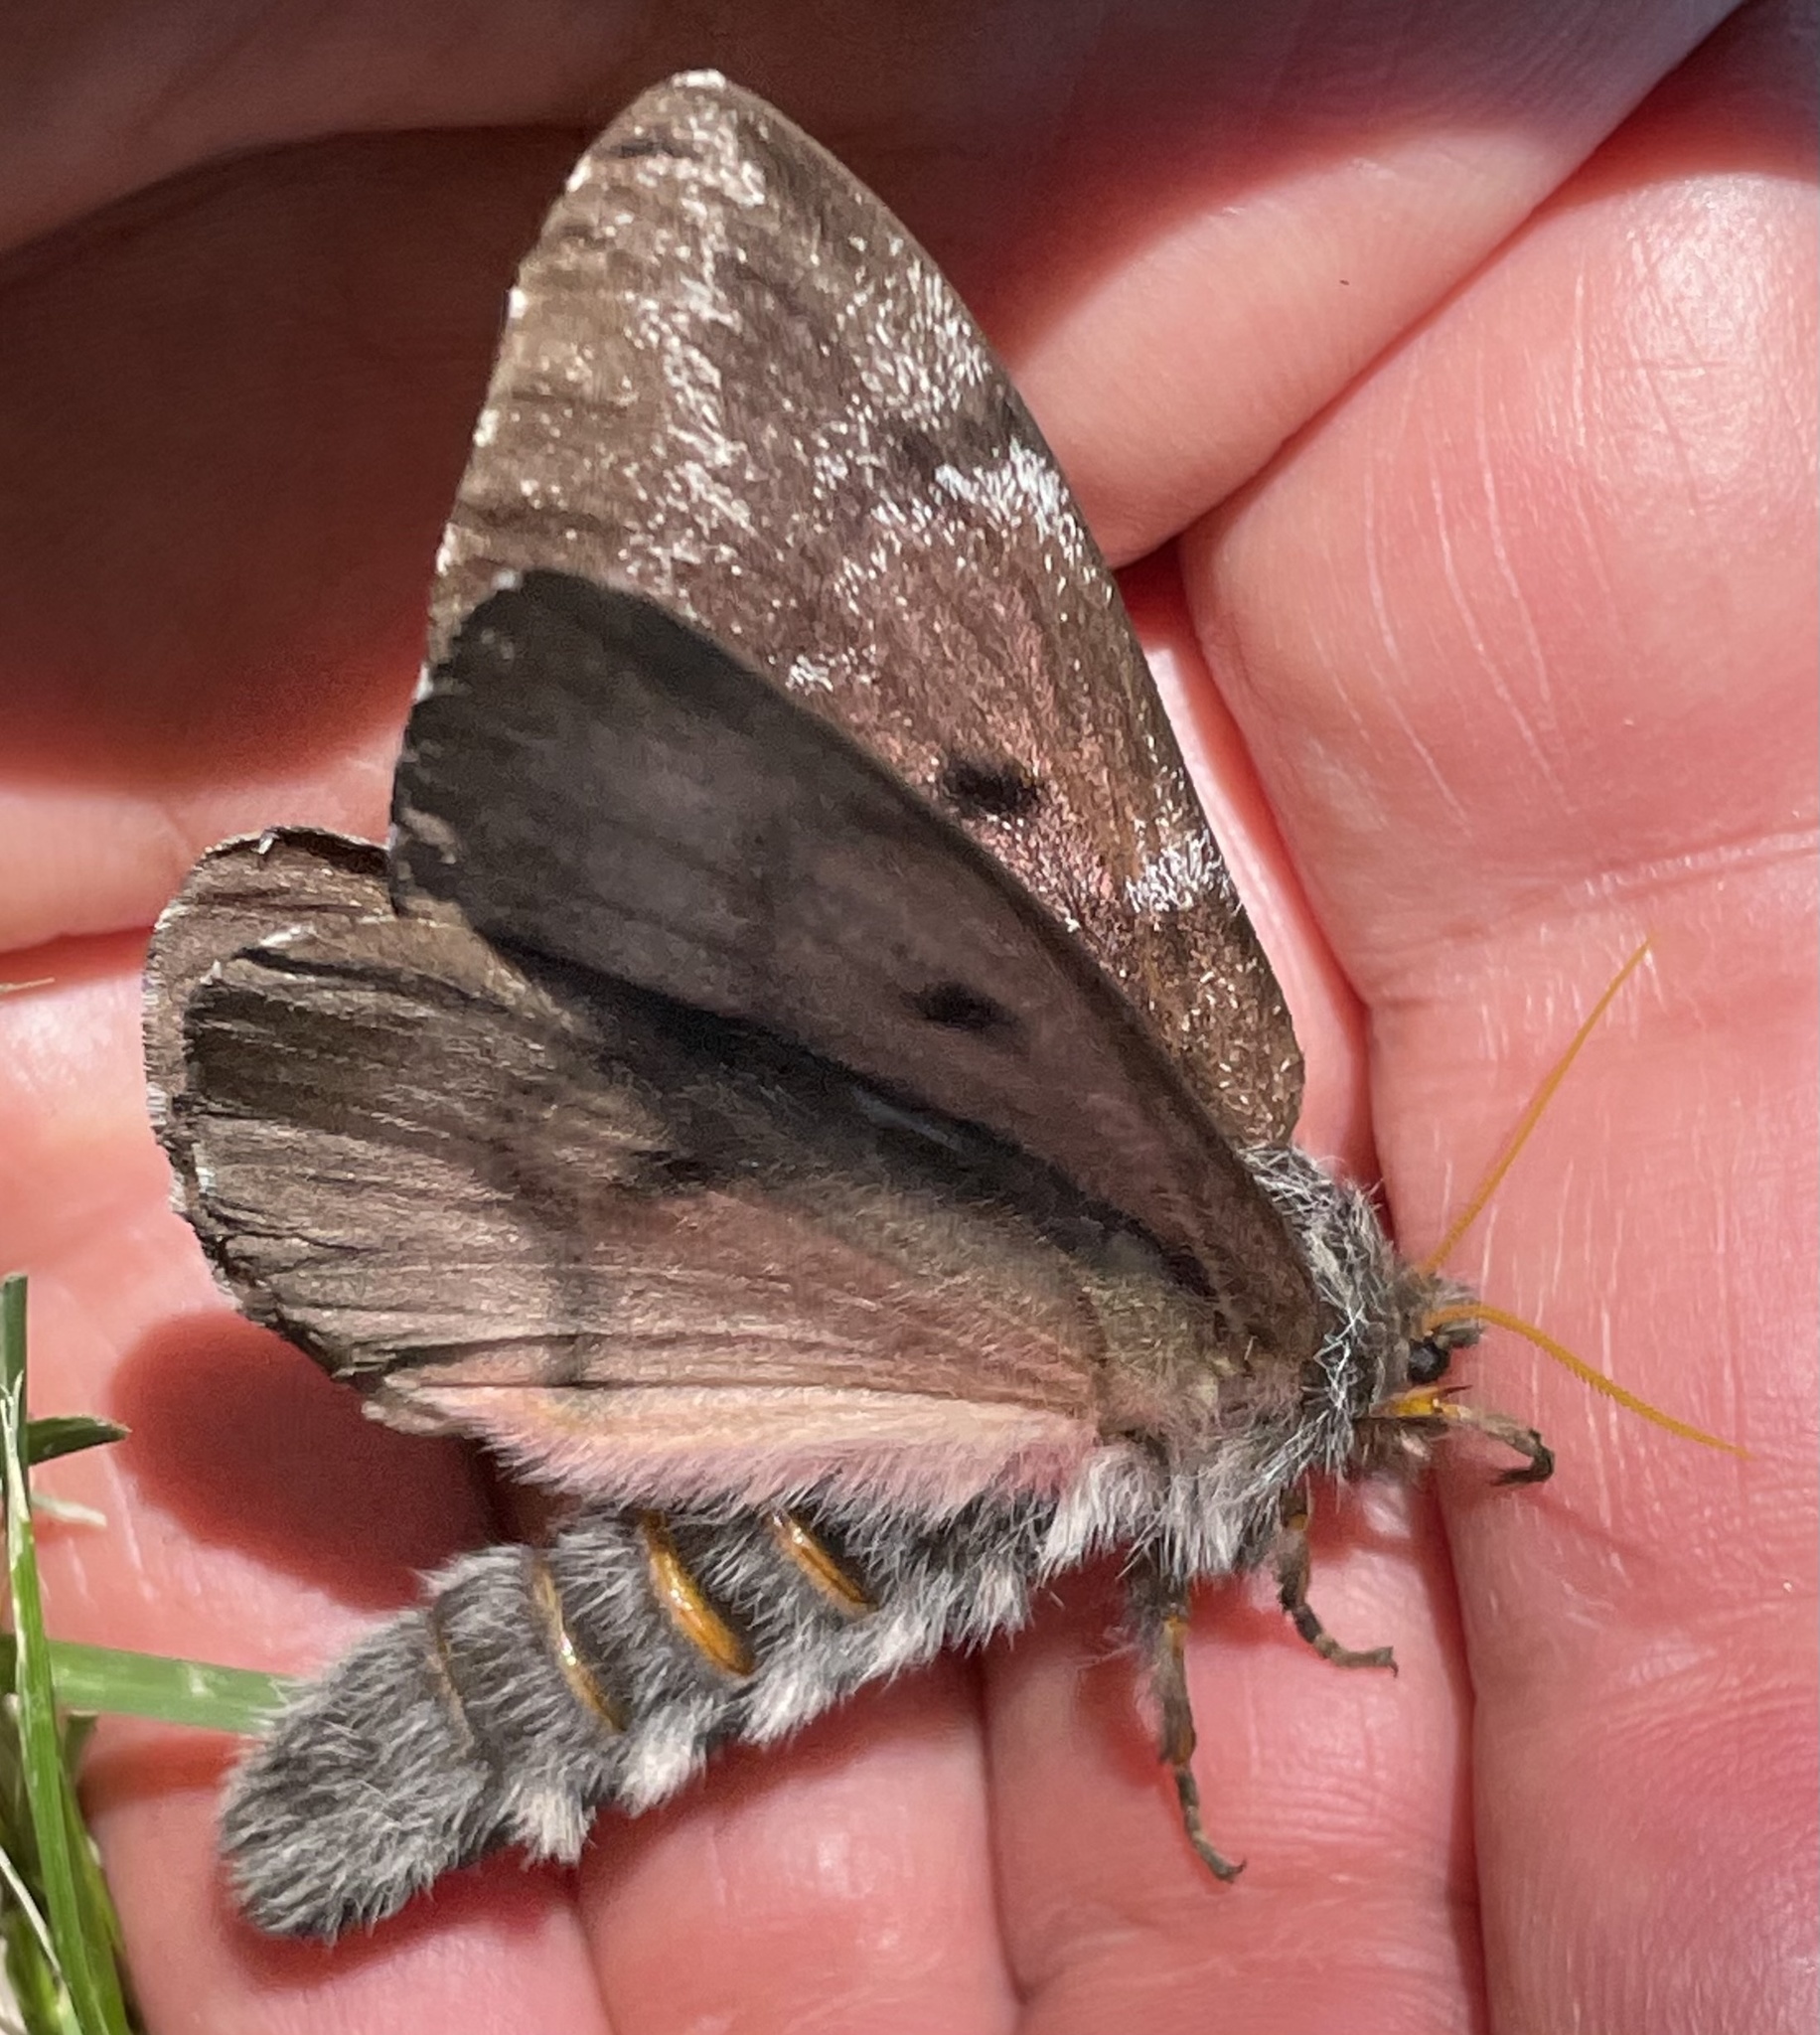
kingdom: Animalia
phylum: Arthropoda
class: Insecta
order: Lepidoptera
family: Saturniidae
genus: Coloradia
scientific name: Coloradia pandora
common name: Pandora pinemoth
